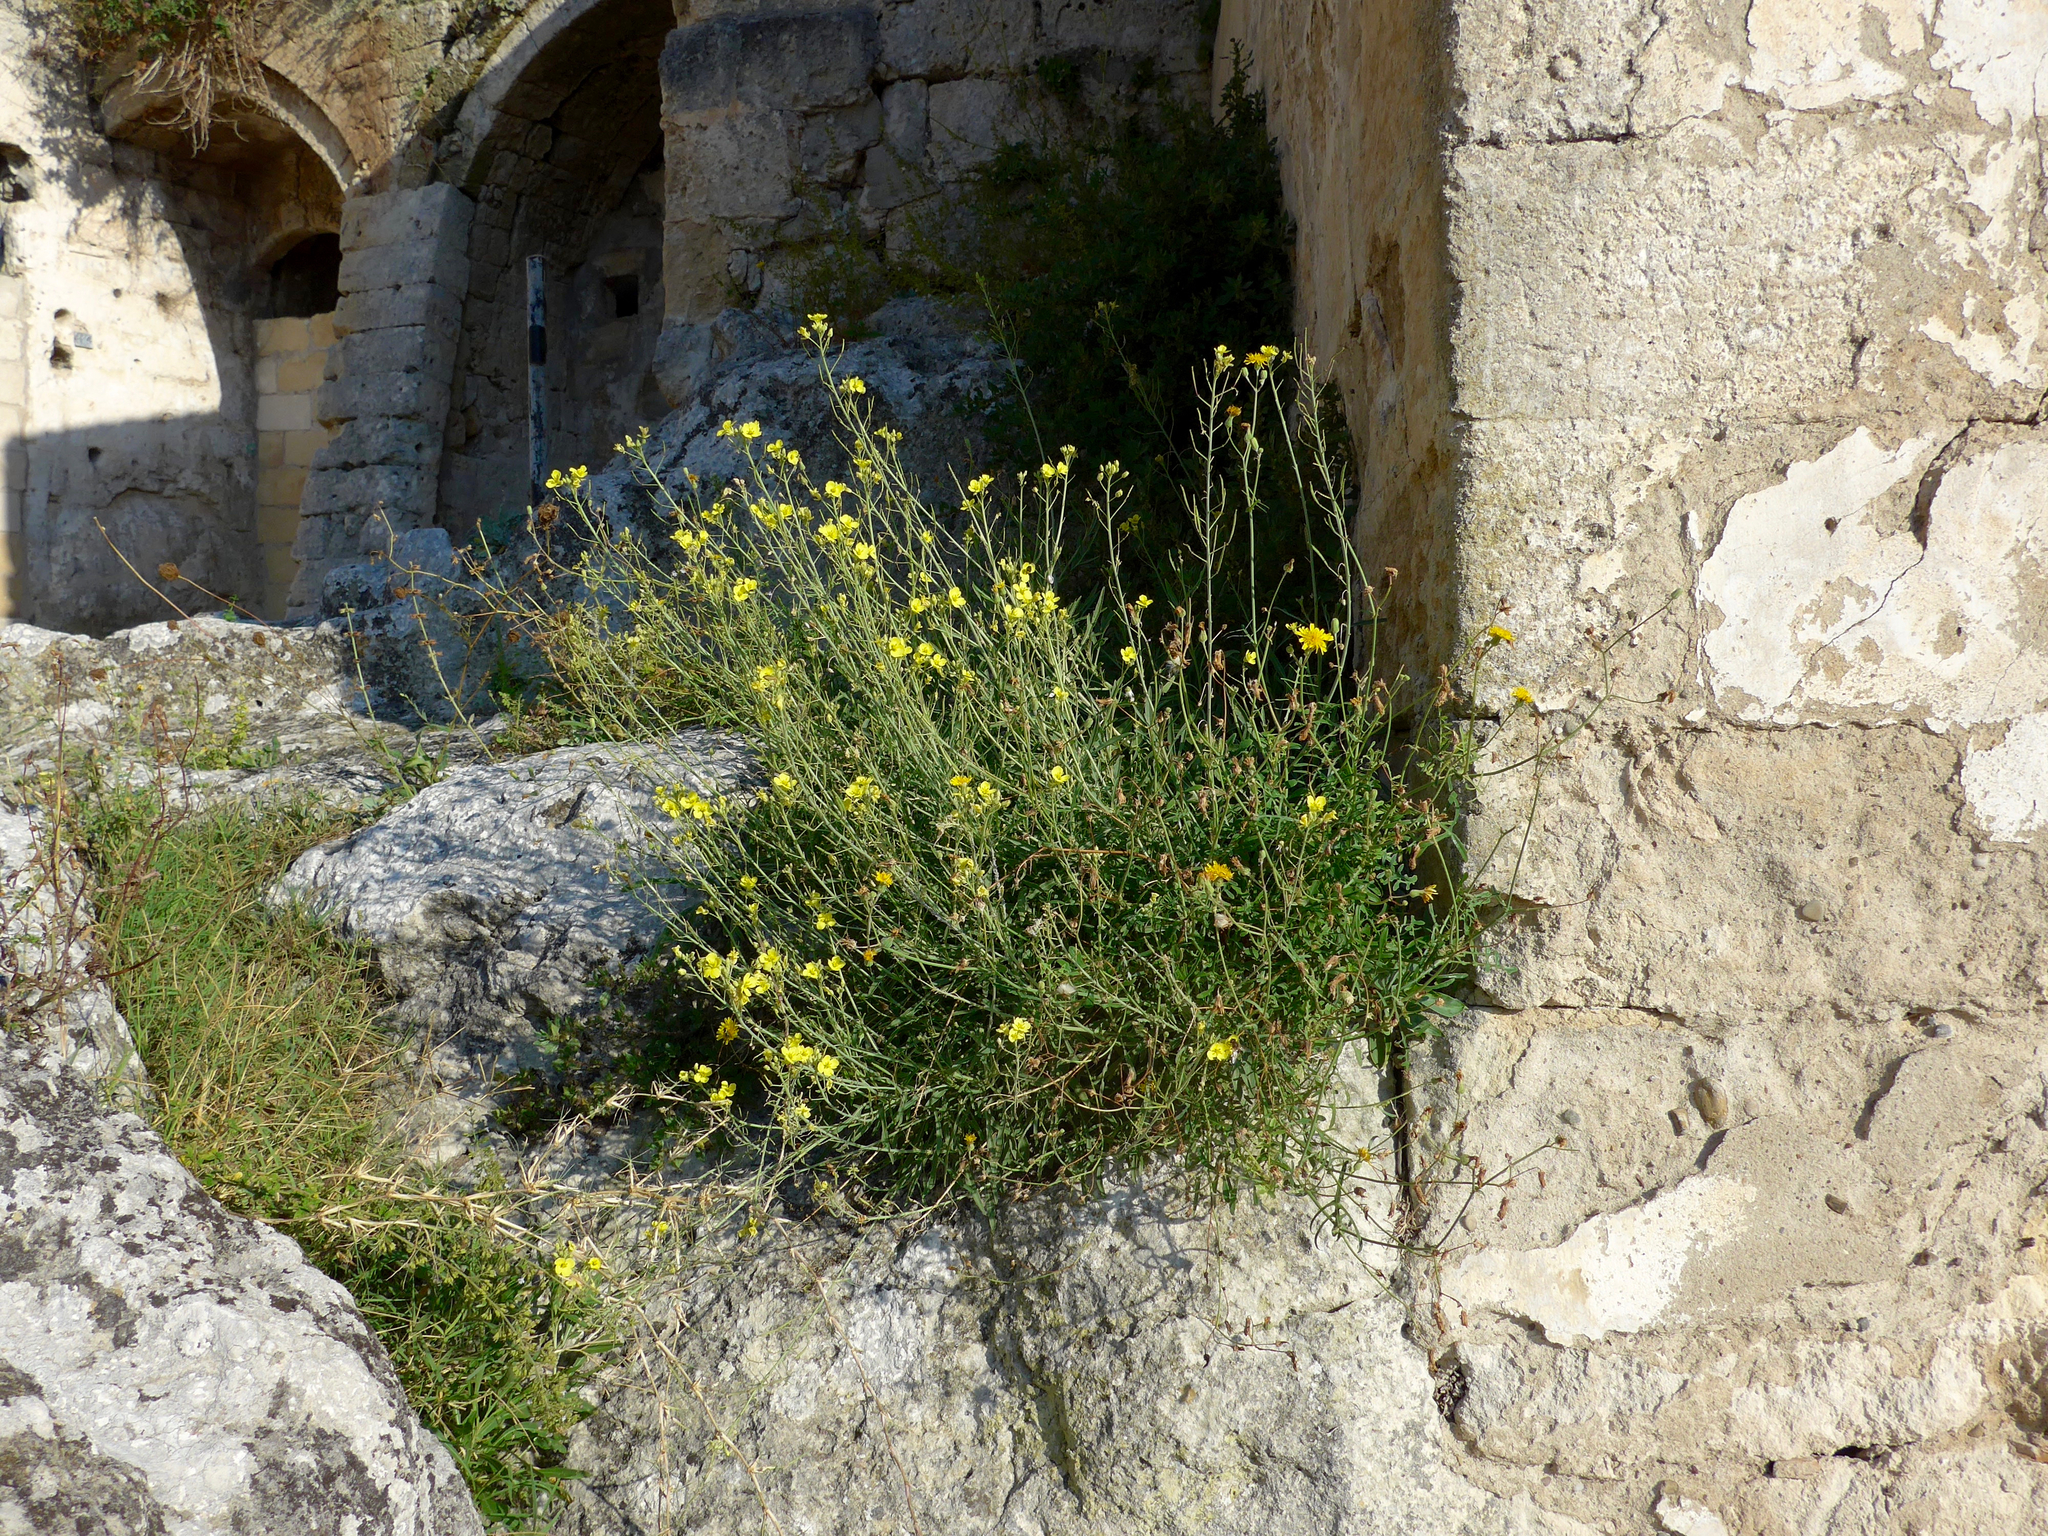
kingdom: Plantae
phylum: Tracheophyta
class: Magnoliopsida
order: Brassicales
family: Brassicaceae
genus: Diplotaxis
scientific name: Diplotaxis tenuifolia
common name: Perennial wall-rocket
